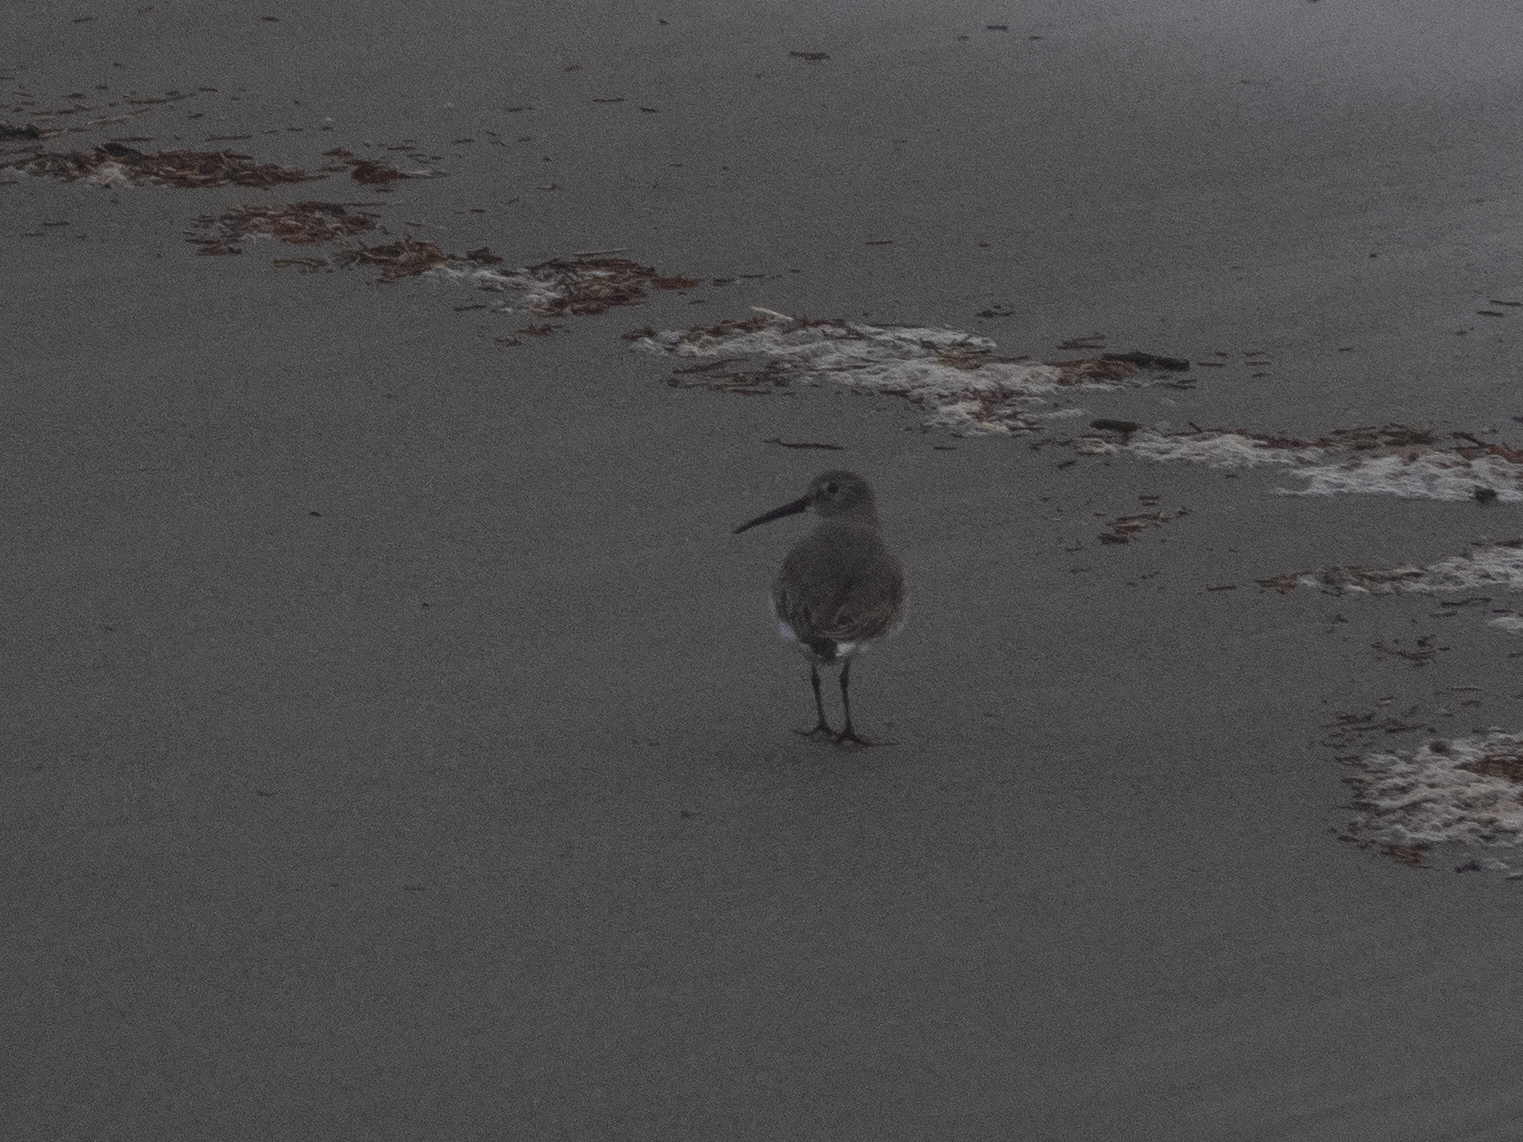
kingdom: Animalia
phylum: Chordata
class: Aves
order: Charadriiformes
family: Scolopacidae
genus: Calidris
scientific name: Calidris alpina
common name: Dunlin
